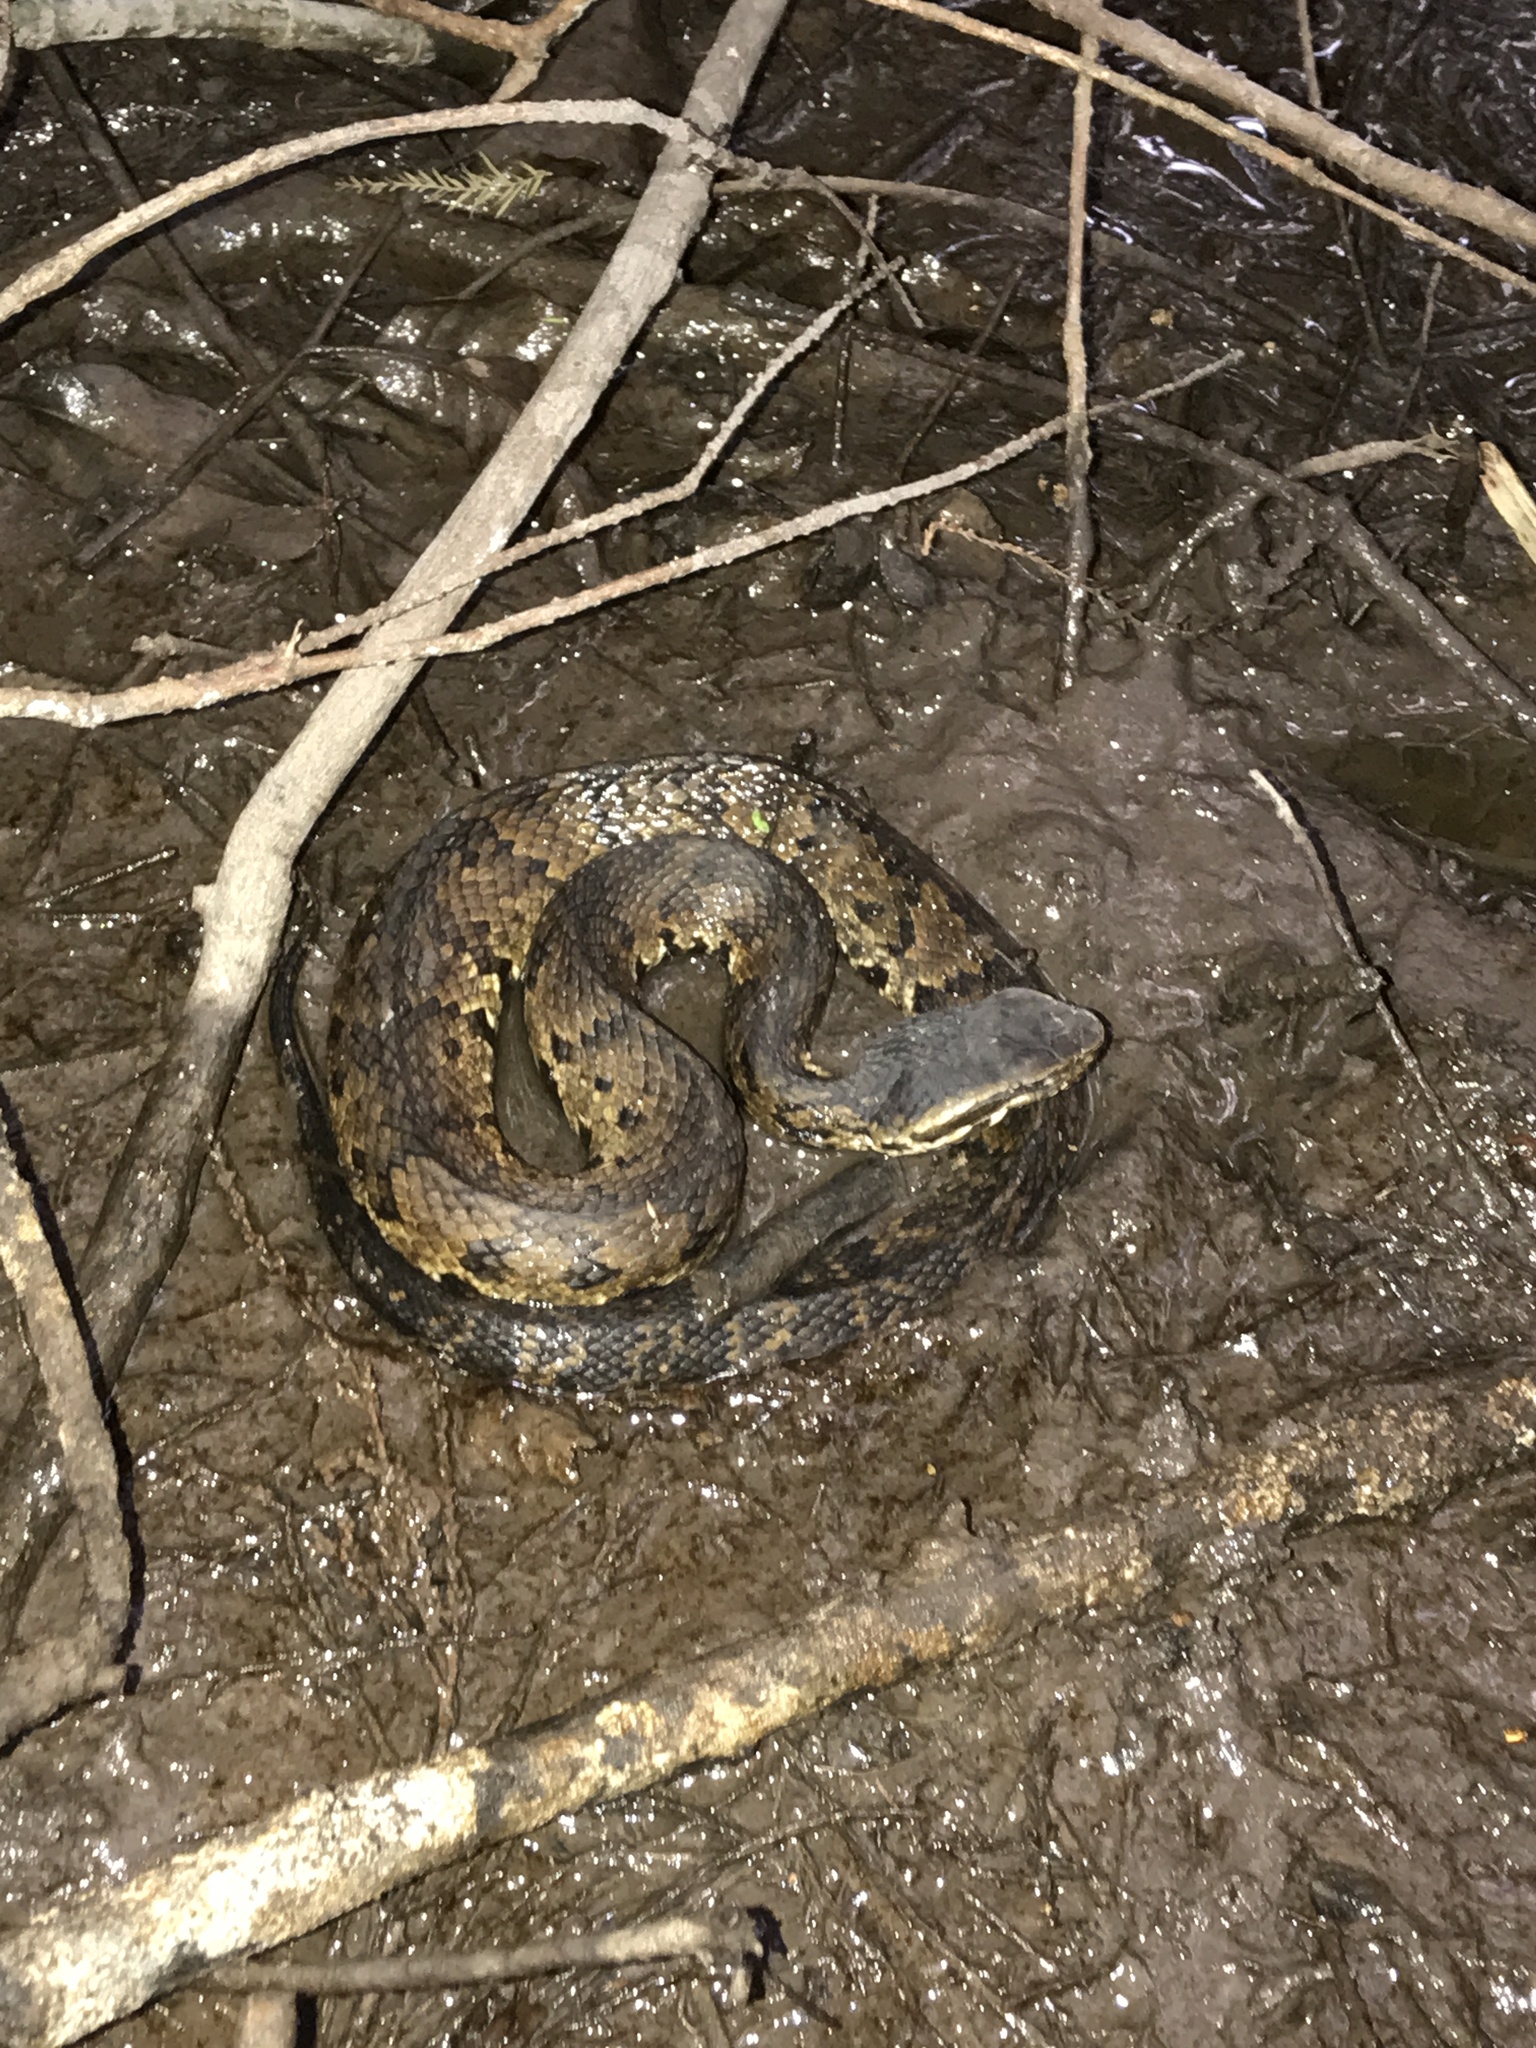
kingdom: Animalia
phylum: Chordata
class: Squamata
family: Viperidae
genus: Agkistrodon
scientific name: Agkistrodon piscivorus
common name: Cottonmouth
